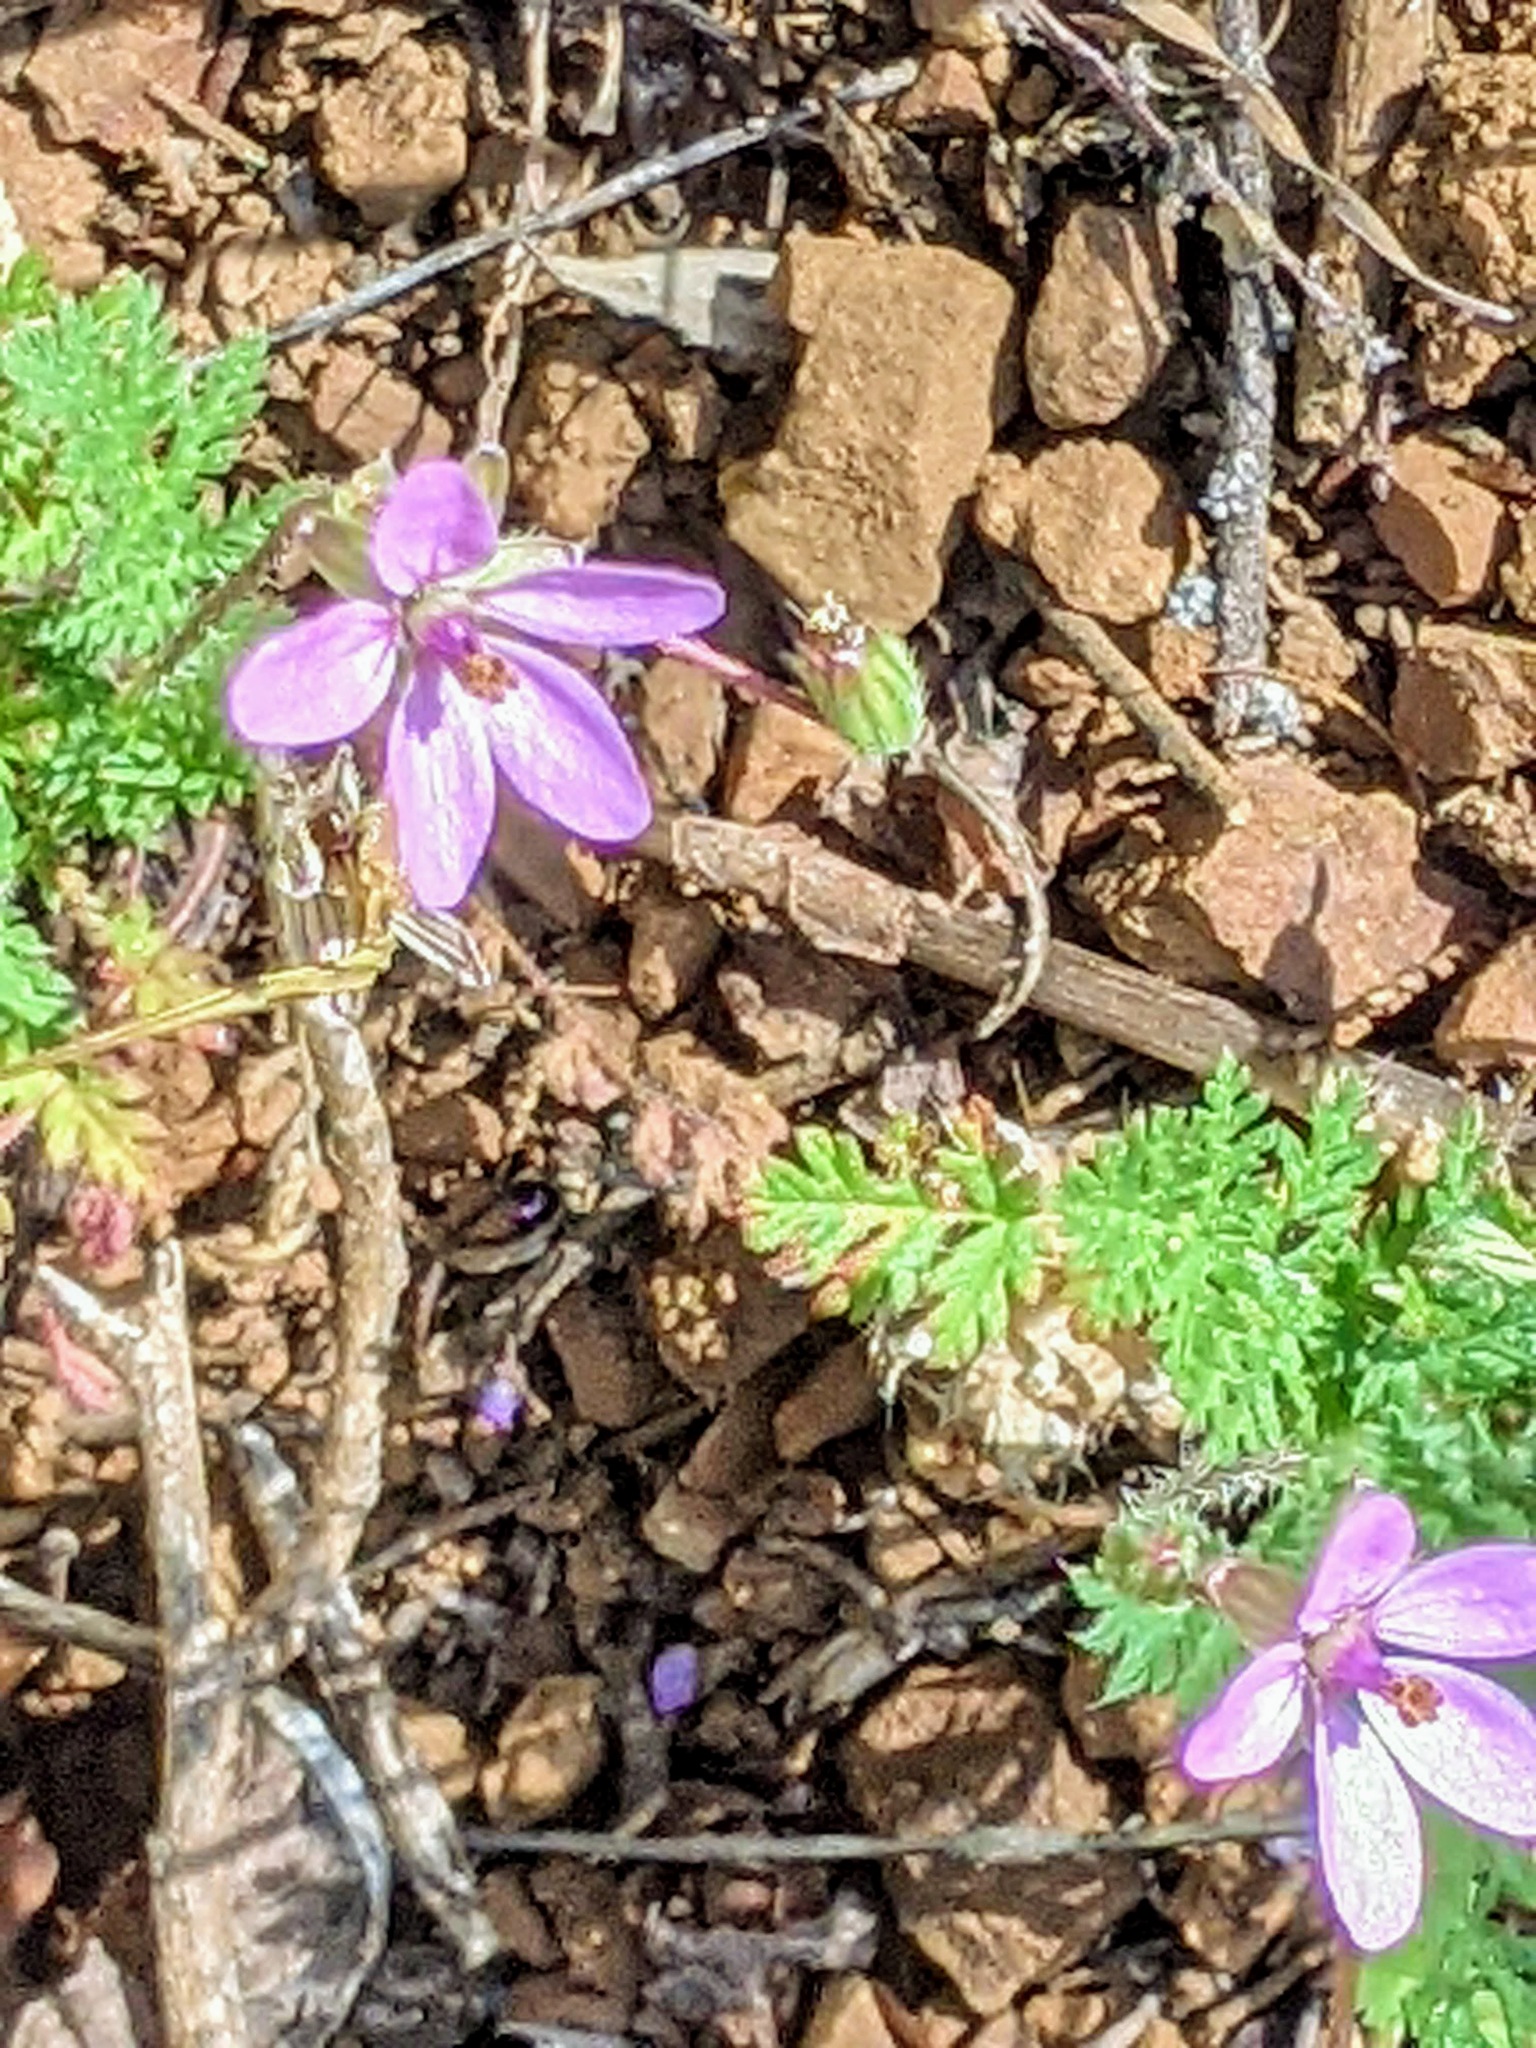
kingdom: Plantae
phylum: Tracheophyta
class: Magnoliopsida
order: Geraniales
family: Geraniaceae
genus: Erodium
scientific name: Erodium cicutarium
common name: Common stork's-bill
